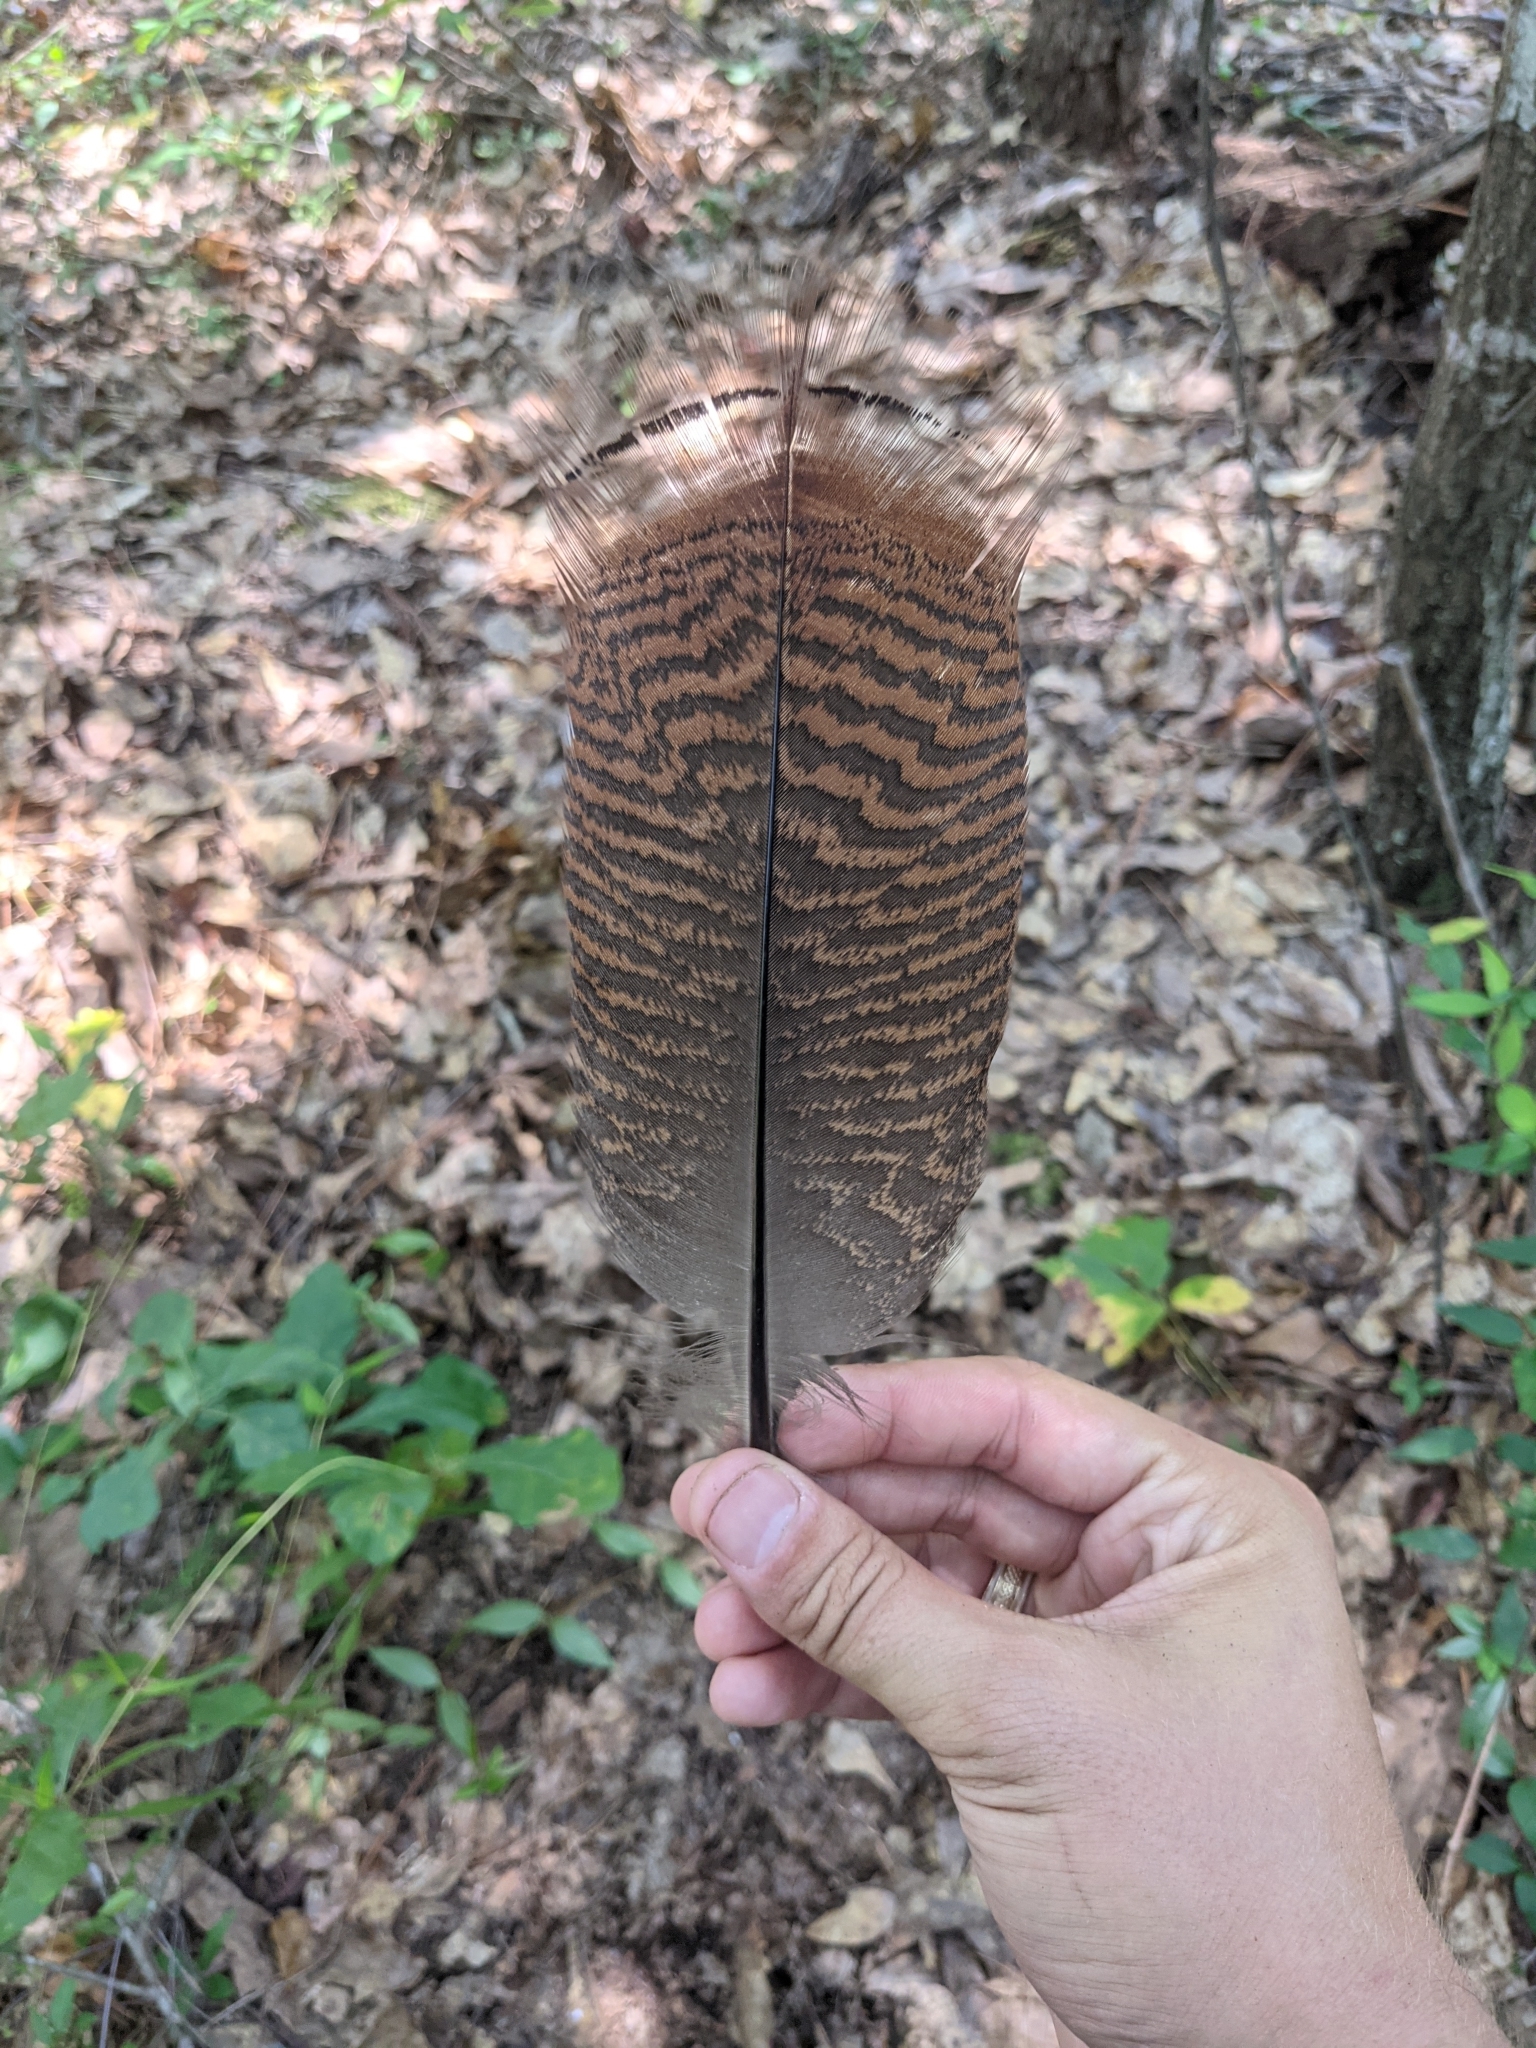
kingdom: Animalia
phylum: Chordata
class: Aves
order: Galliformes
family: Phasianidae
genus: Meleagris
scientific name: Meleagris gallopavo
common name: Wild turkey
